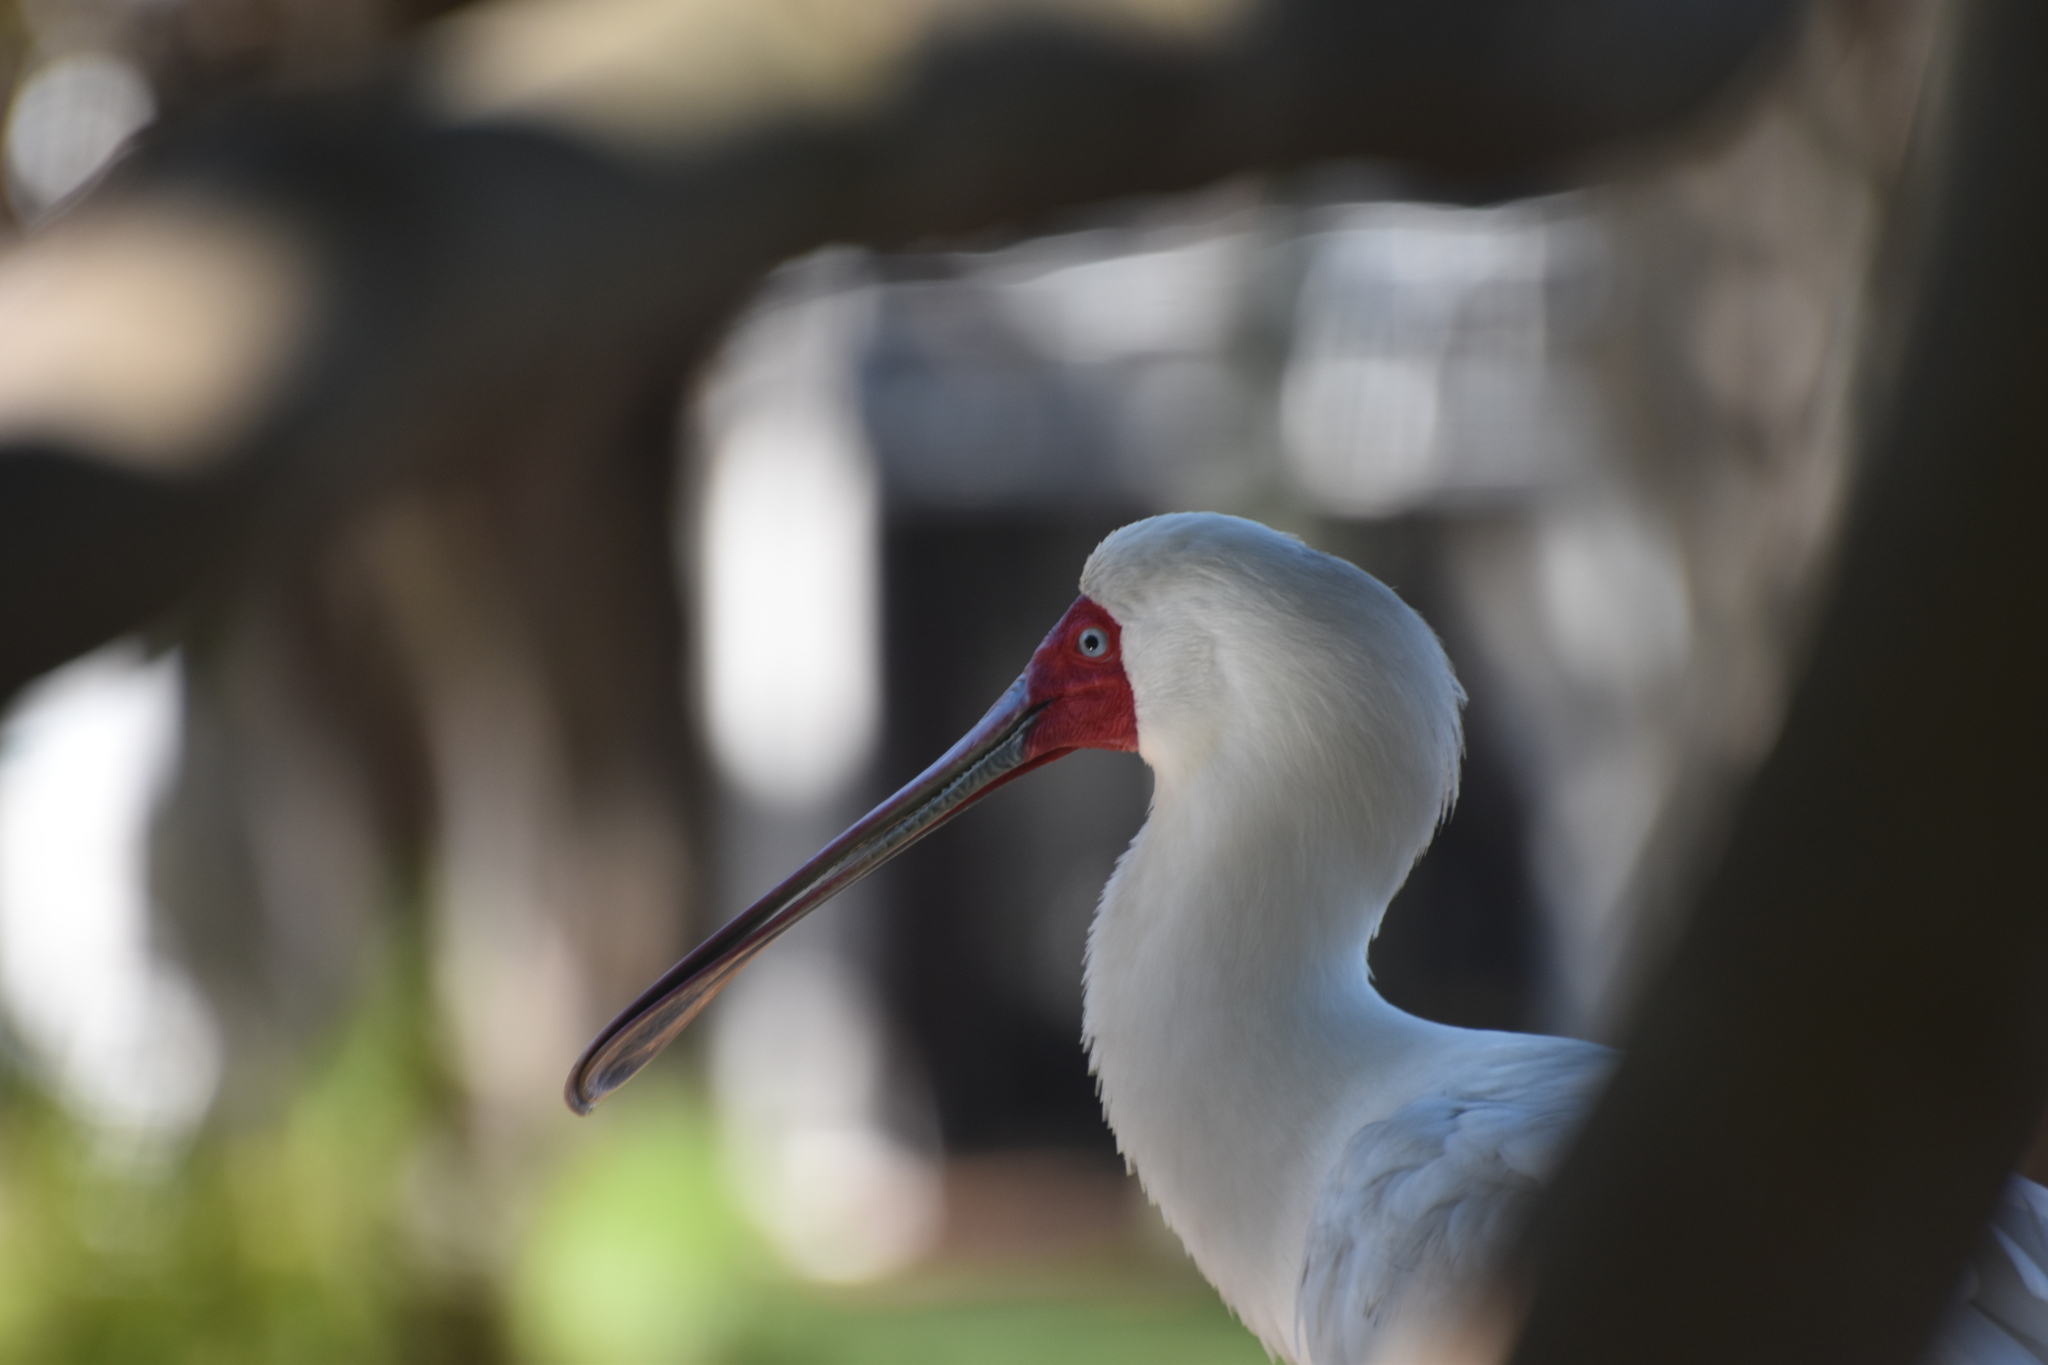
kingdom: Animalia
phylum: Chordata
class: Aves
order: Pelecaniformes
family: Threskiornithidae
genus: Platalea
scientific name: Platalea alba
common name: African spoonbill
